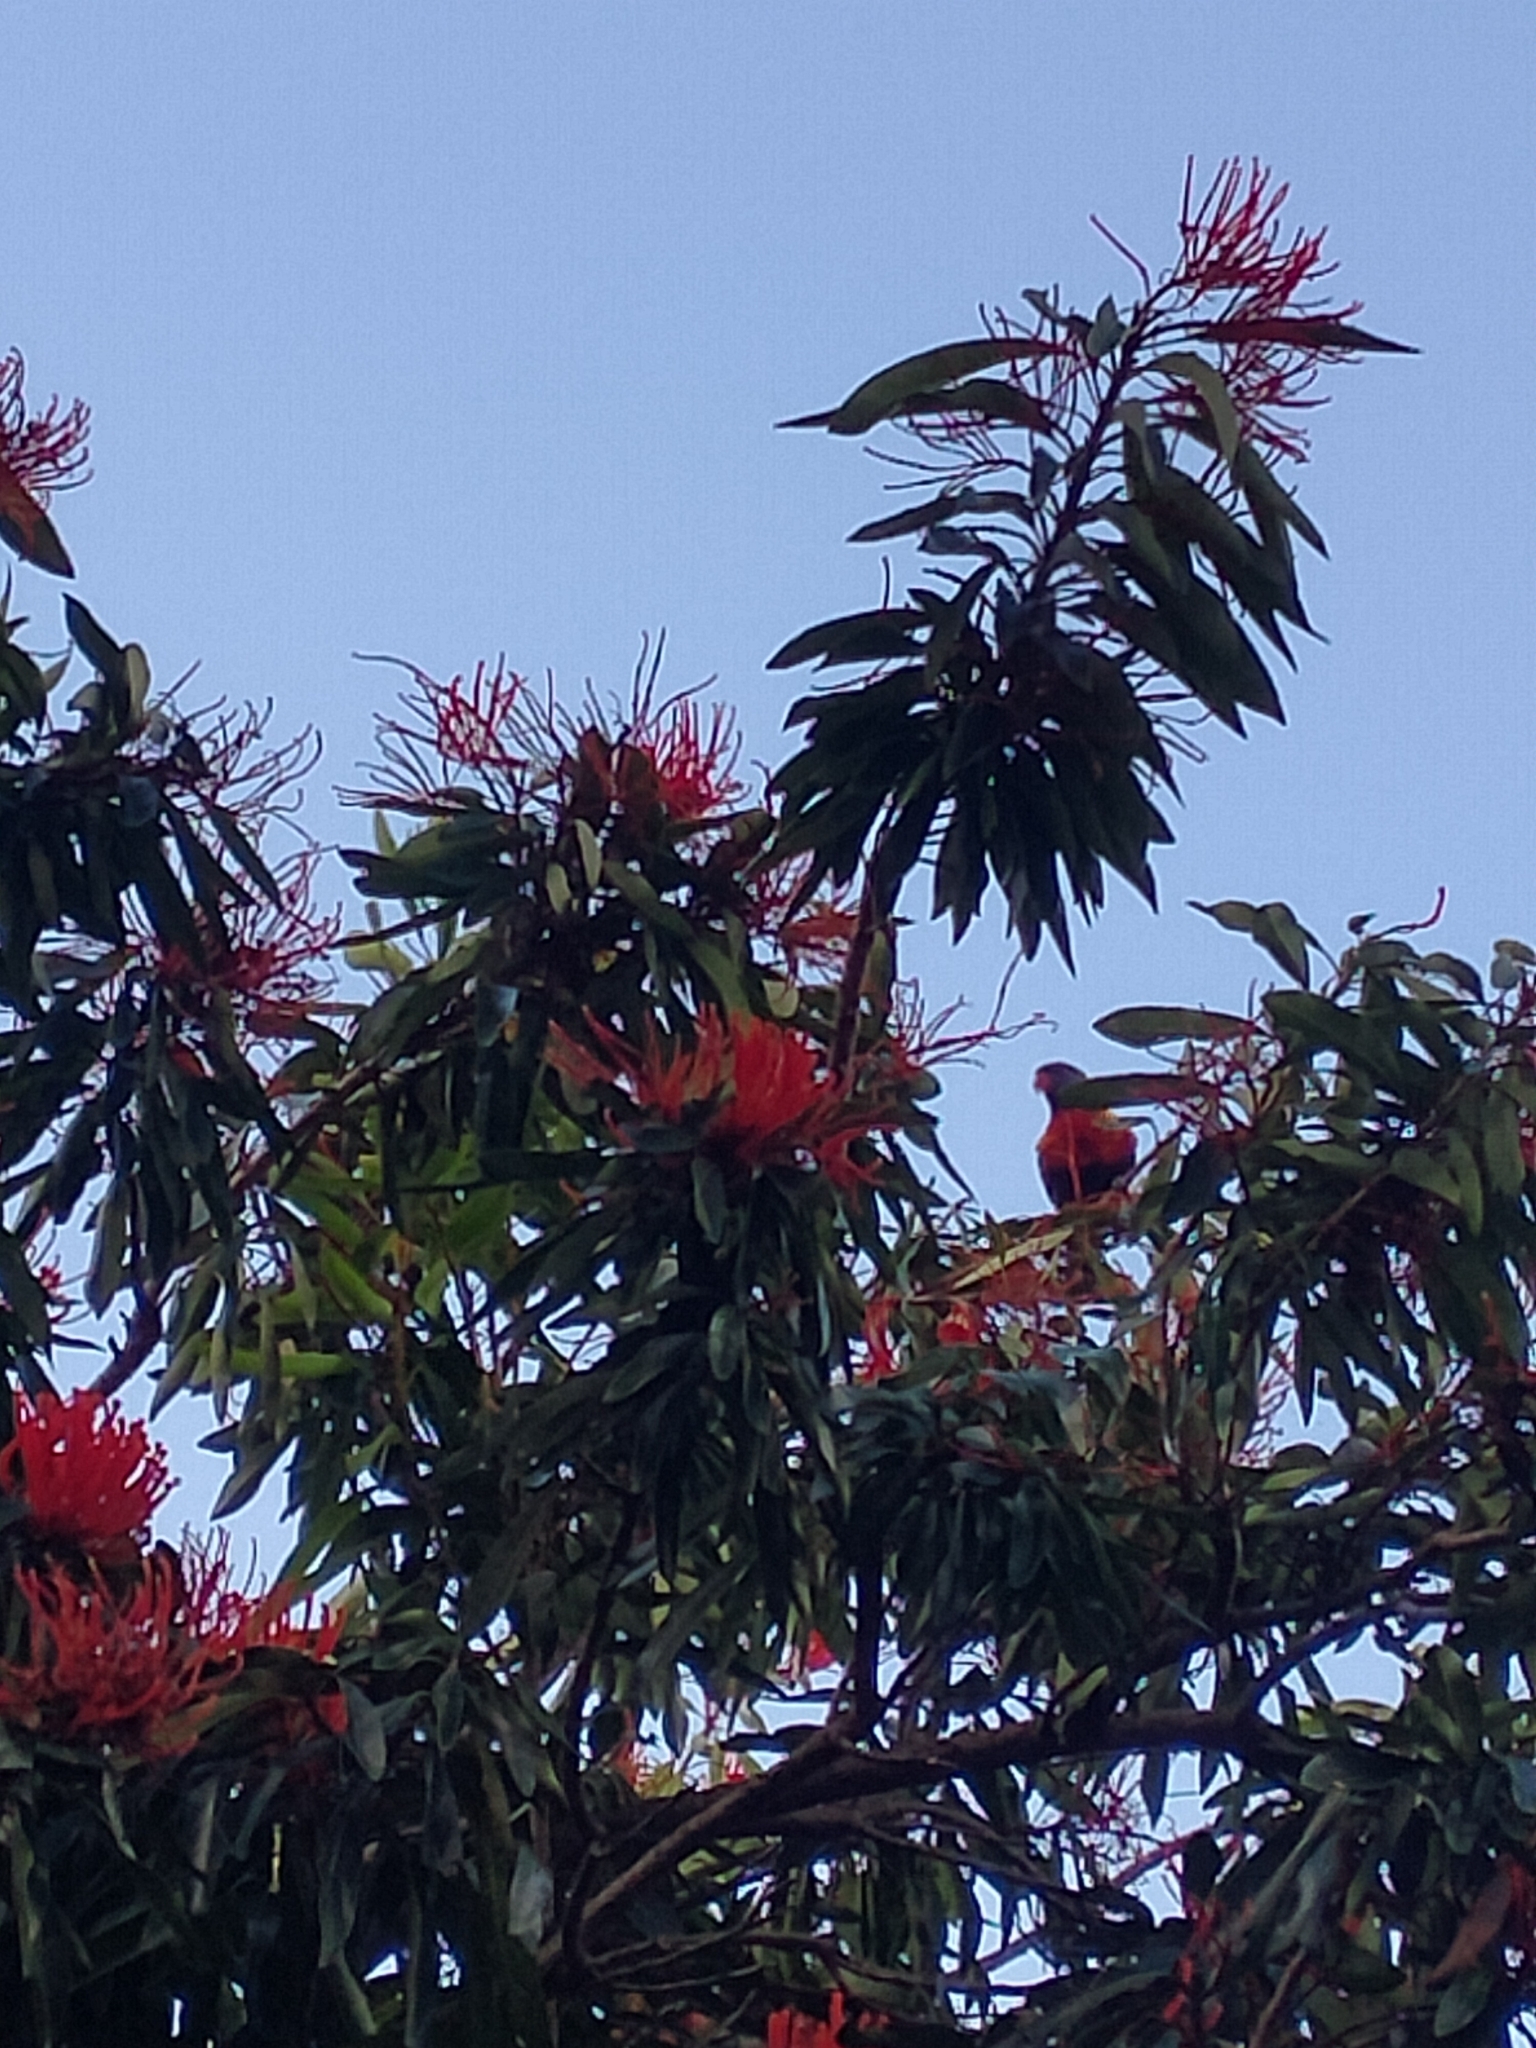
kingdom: Animalia
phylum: Chordata
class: Aves
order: Psittaciformes
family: Psittacidae
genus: Trichoglossus
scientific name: Trichoglossus haematodus
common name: Coconut lorikeet
